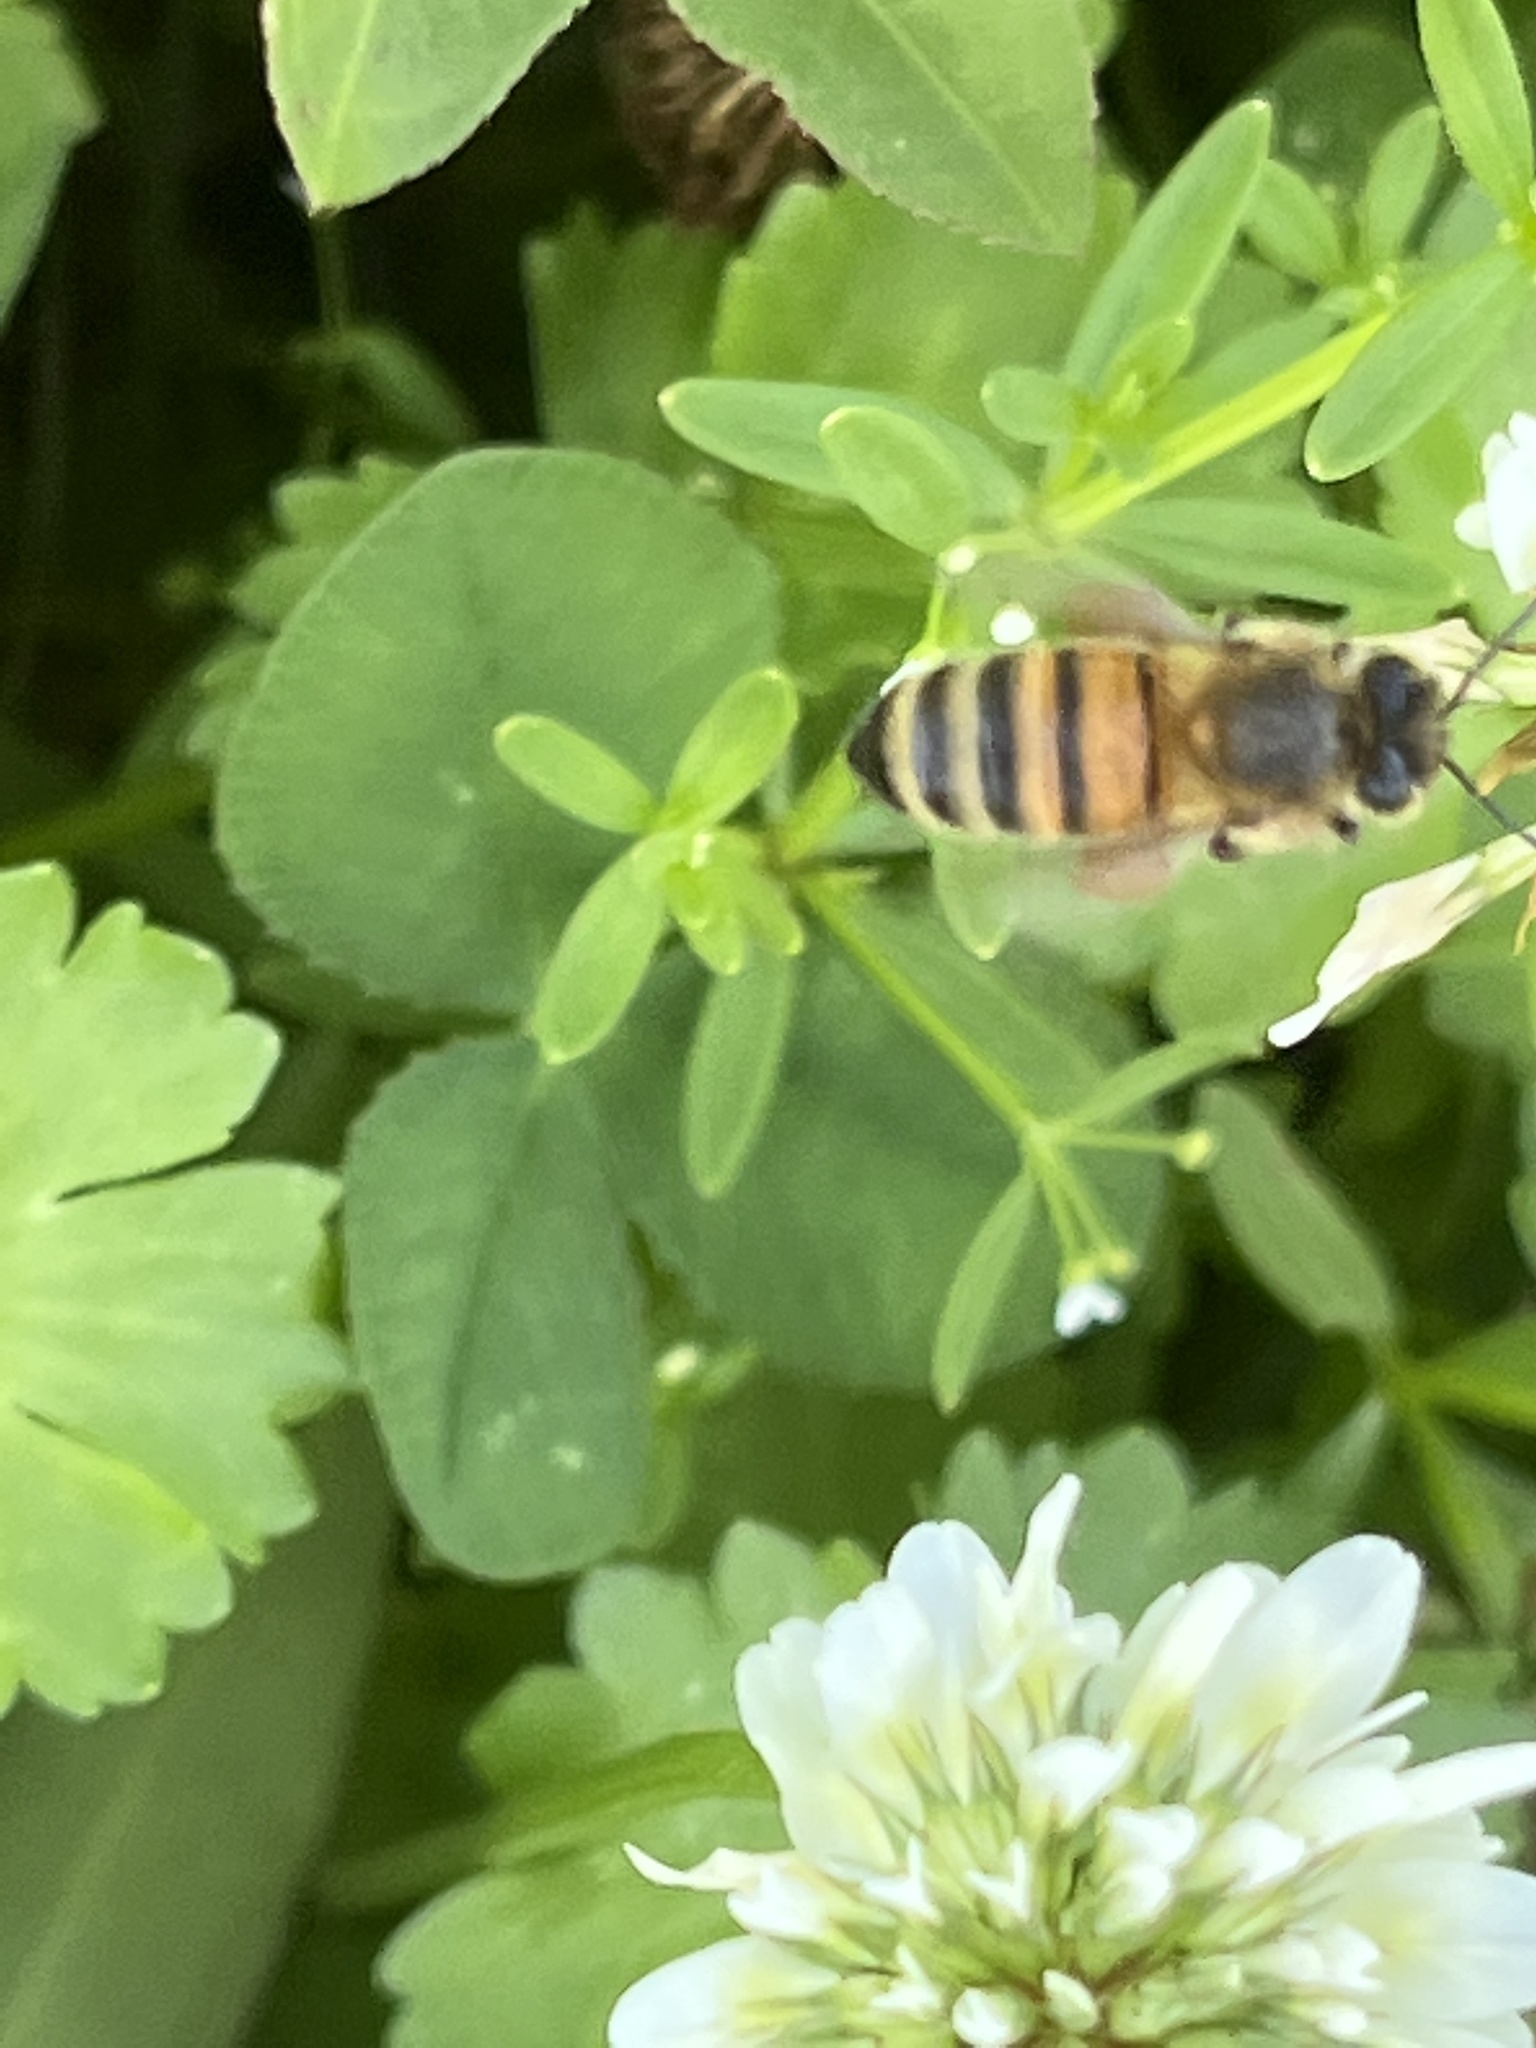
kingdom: Animalia
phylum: Arthropoda
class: Insecta
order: Hymenoptera
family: Apidae
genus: Apis
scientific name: Apis mellifera
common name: Honey bee
